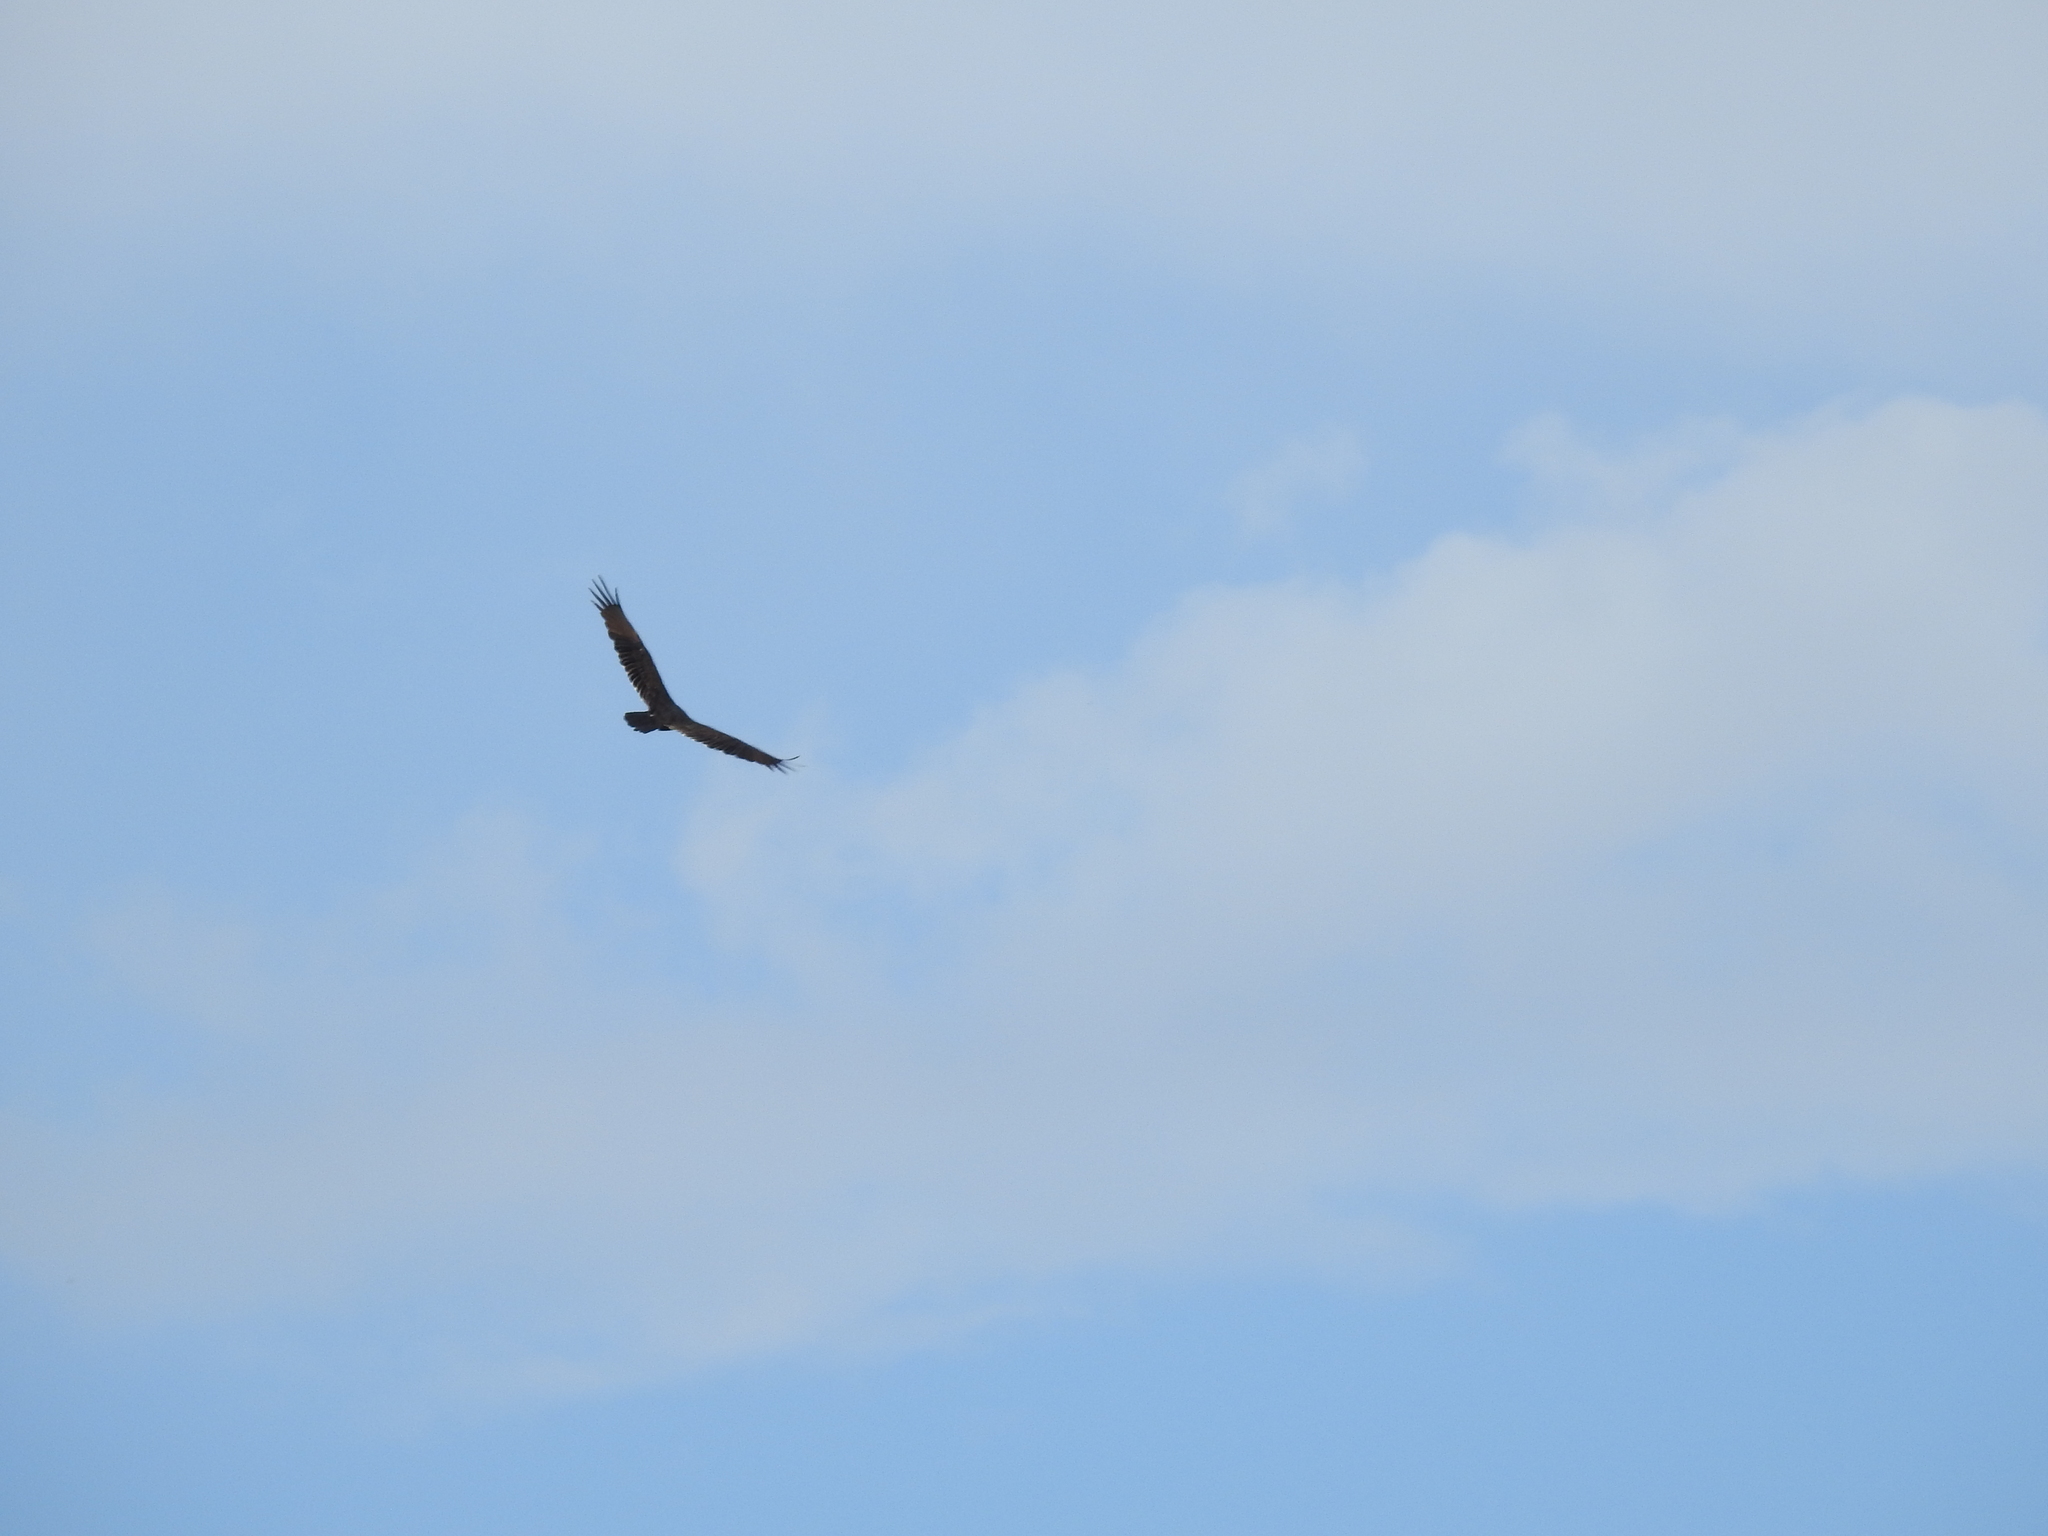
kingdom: Animalia
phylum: Chordata
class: Aves
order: Accipitriformes
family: Cathartidae
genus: Cathartes
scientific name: Cathartes aura
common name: Turkey vulture
